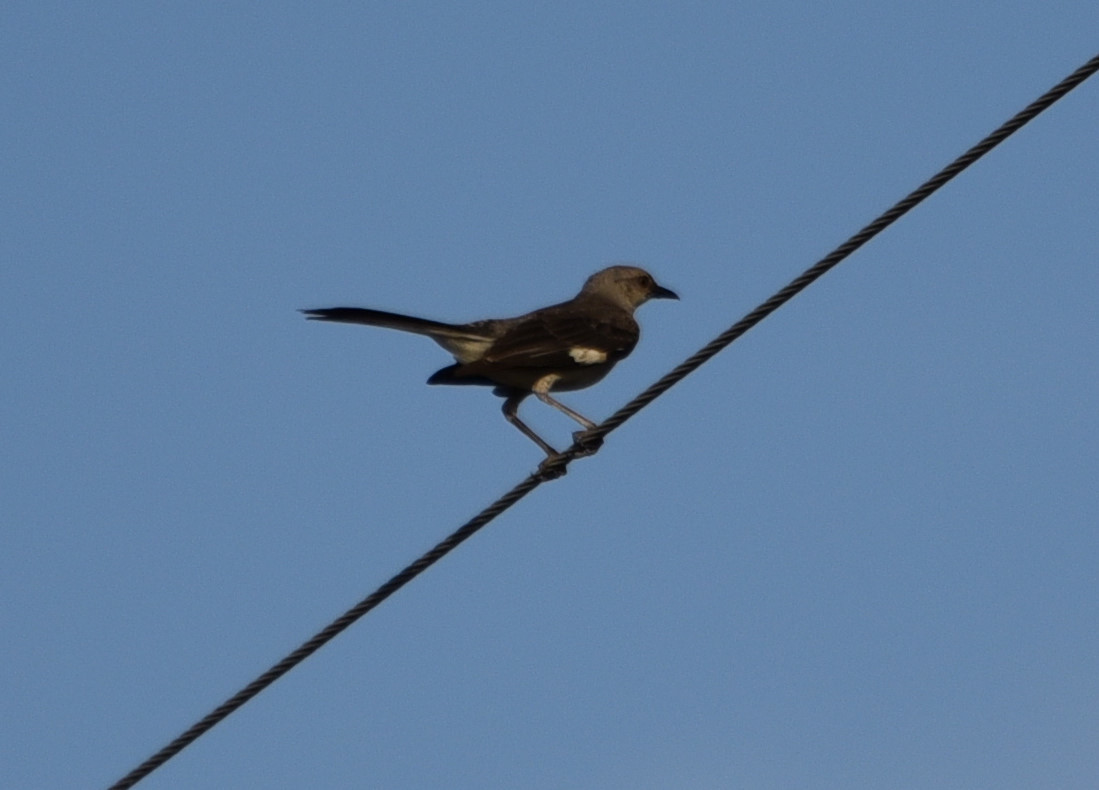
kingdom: Animalia
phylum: Chordata
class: Aves
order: Passeriformes
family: Mimidae
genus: Mimus
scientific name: Mimus polyglottos
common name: Northern mockingbird
